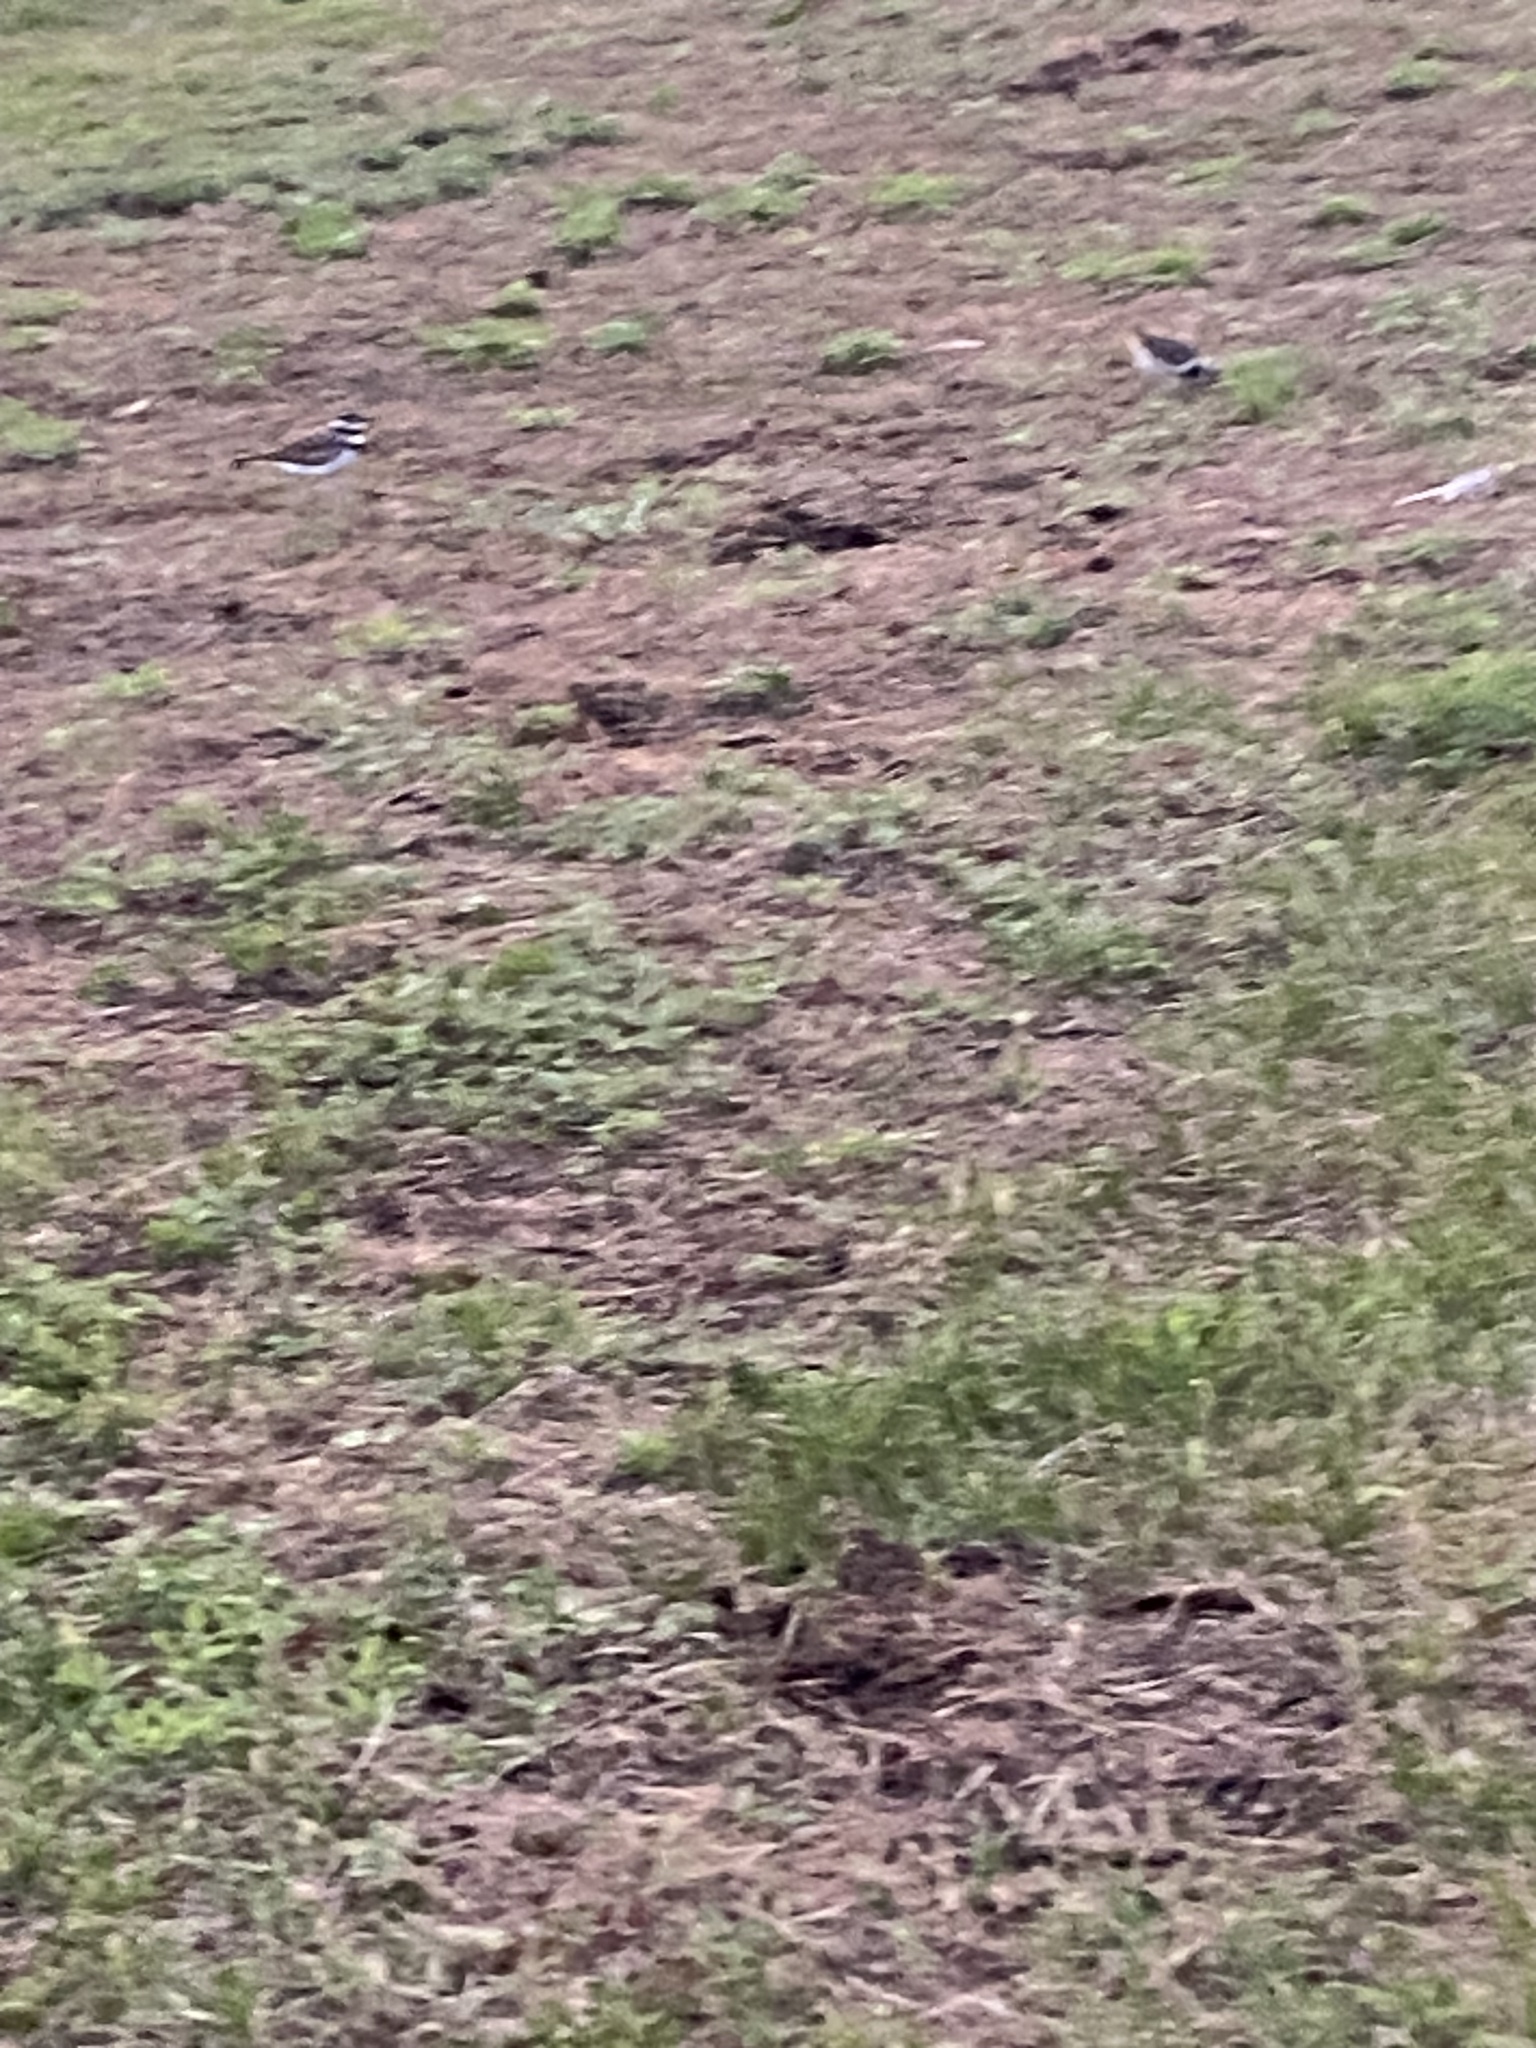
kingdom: Animalia
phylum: Chordata
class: Aves
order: Charadriiformes
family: Charadriidae
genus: Charadrius
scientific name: Charadrius vociferus
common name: Killdeer
